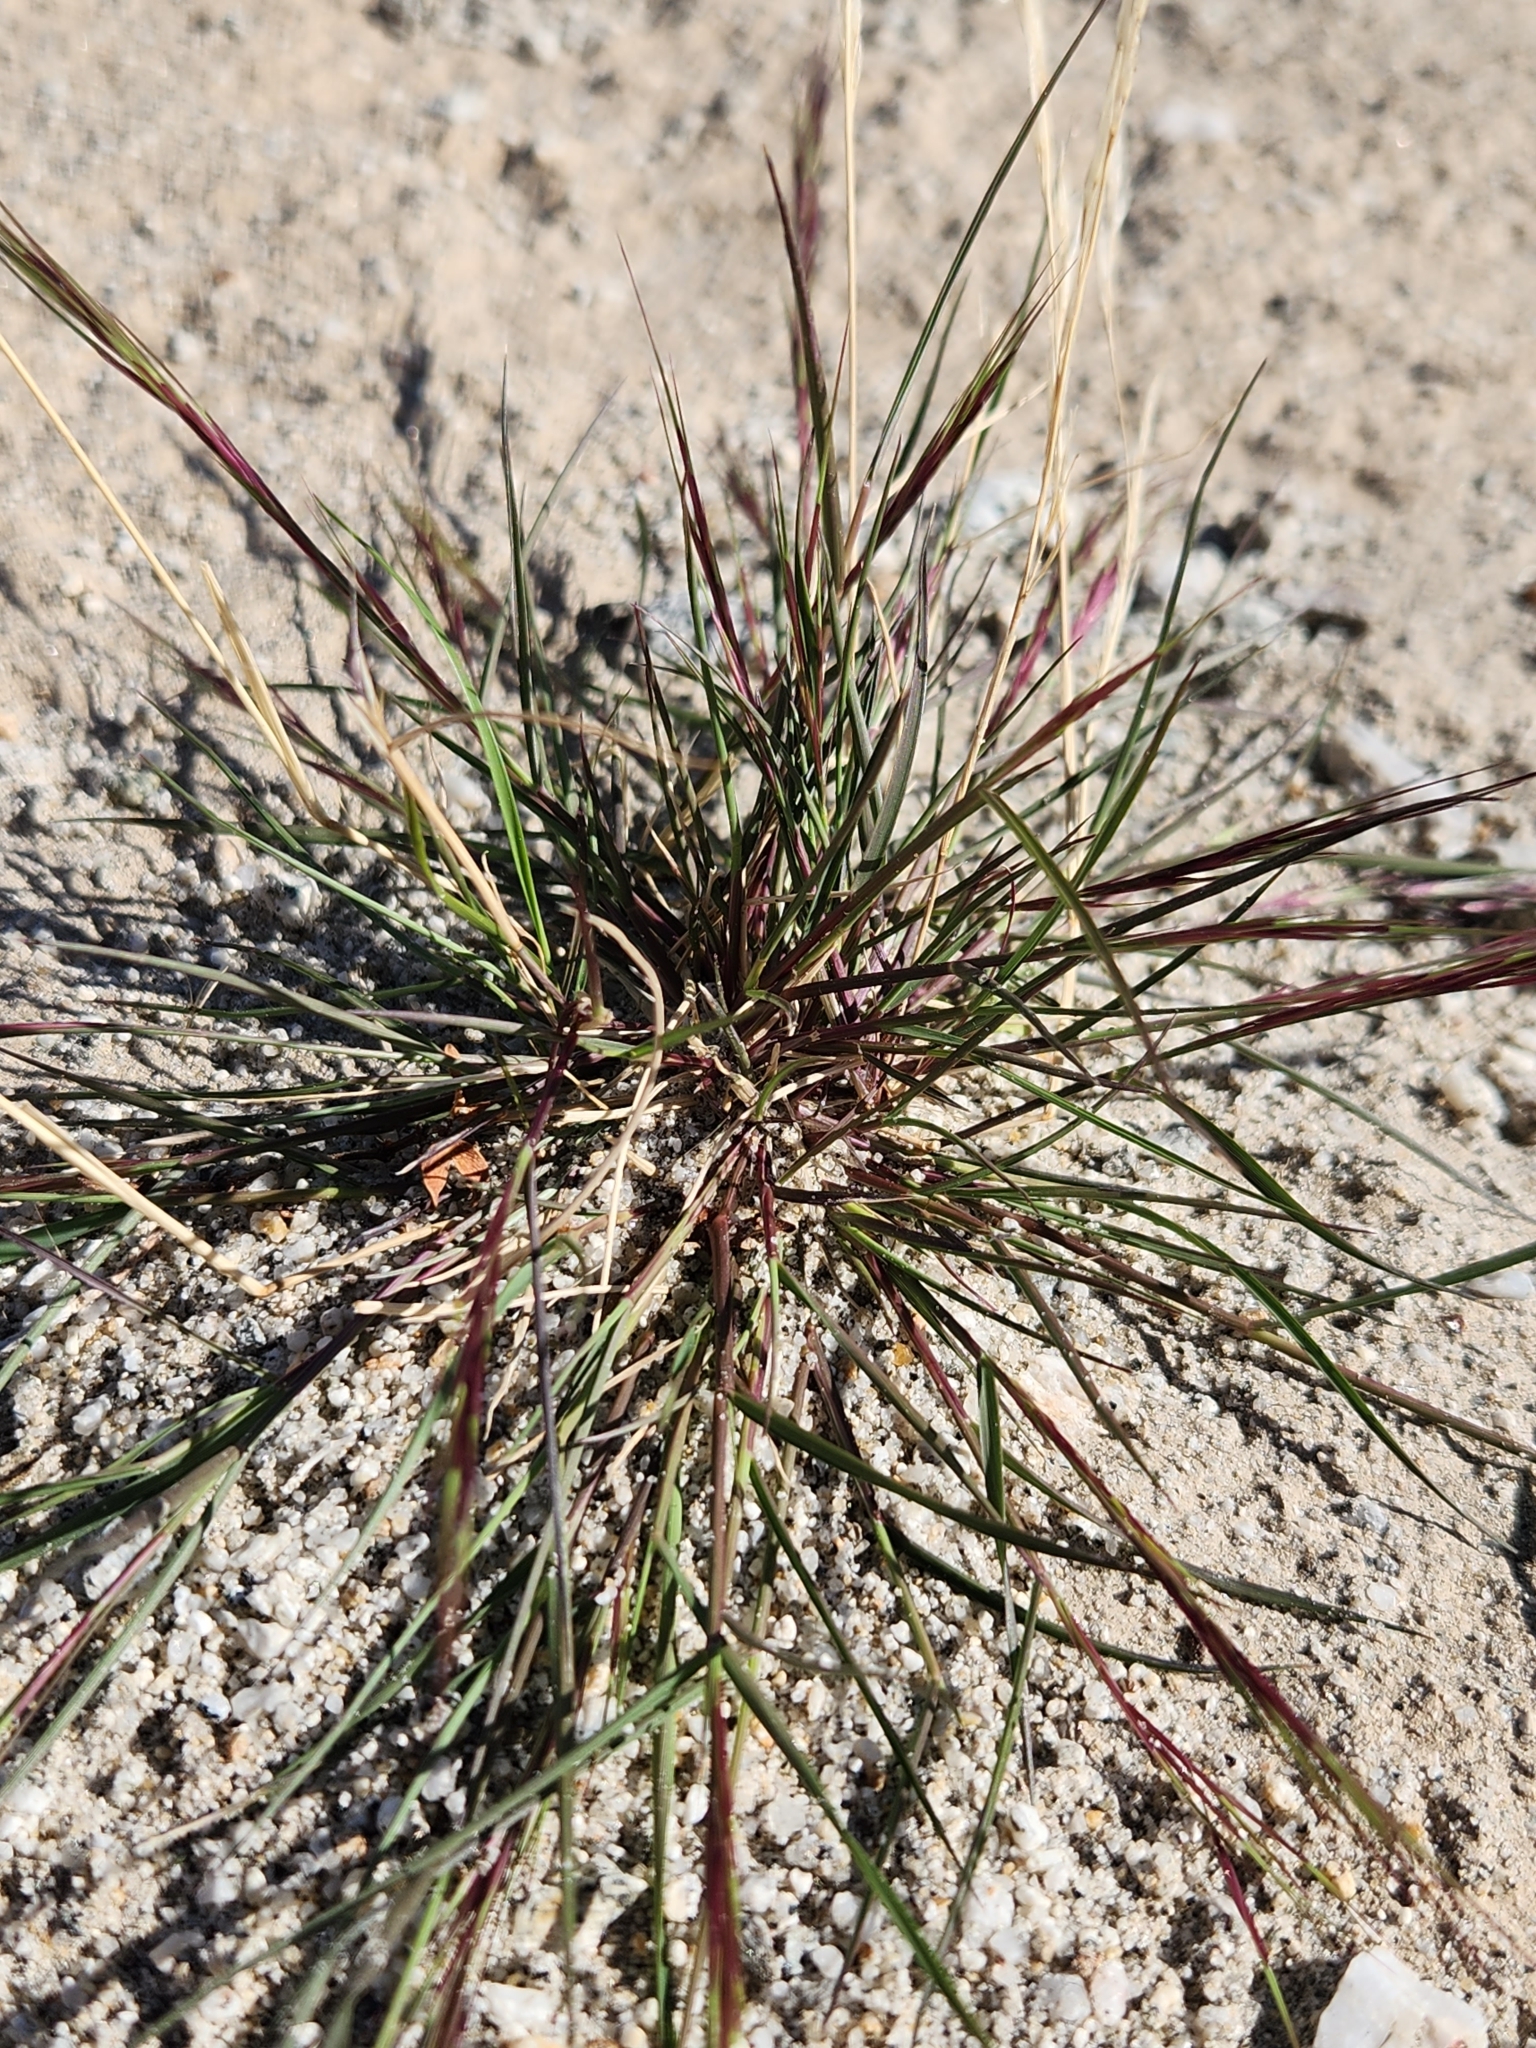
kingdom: Plantae
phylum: Tracheophyta
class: Liliopsida
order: Poales
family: Poaceae
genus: Aristida
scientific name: Aristida adscensionis
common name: Sixweeks threeawn
